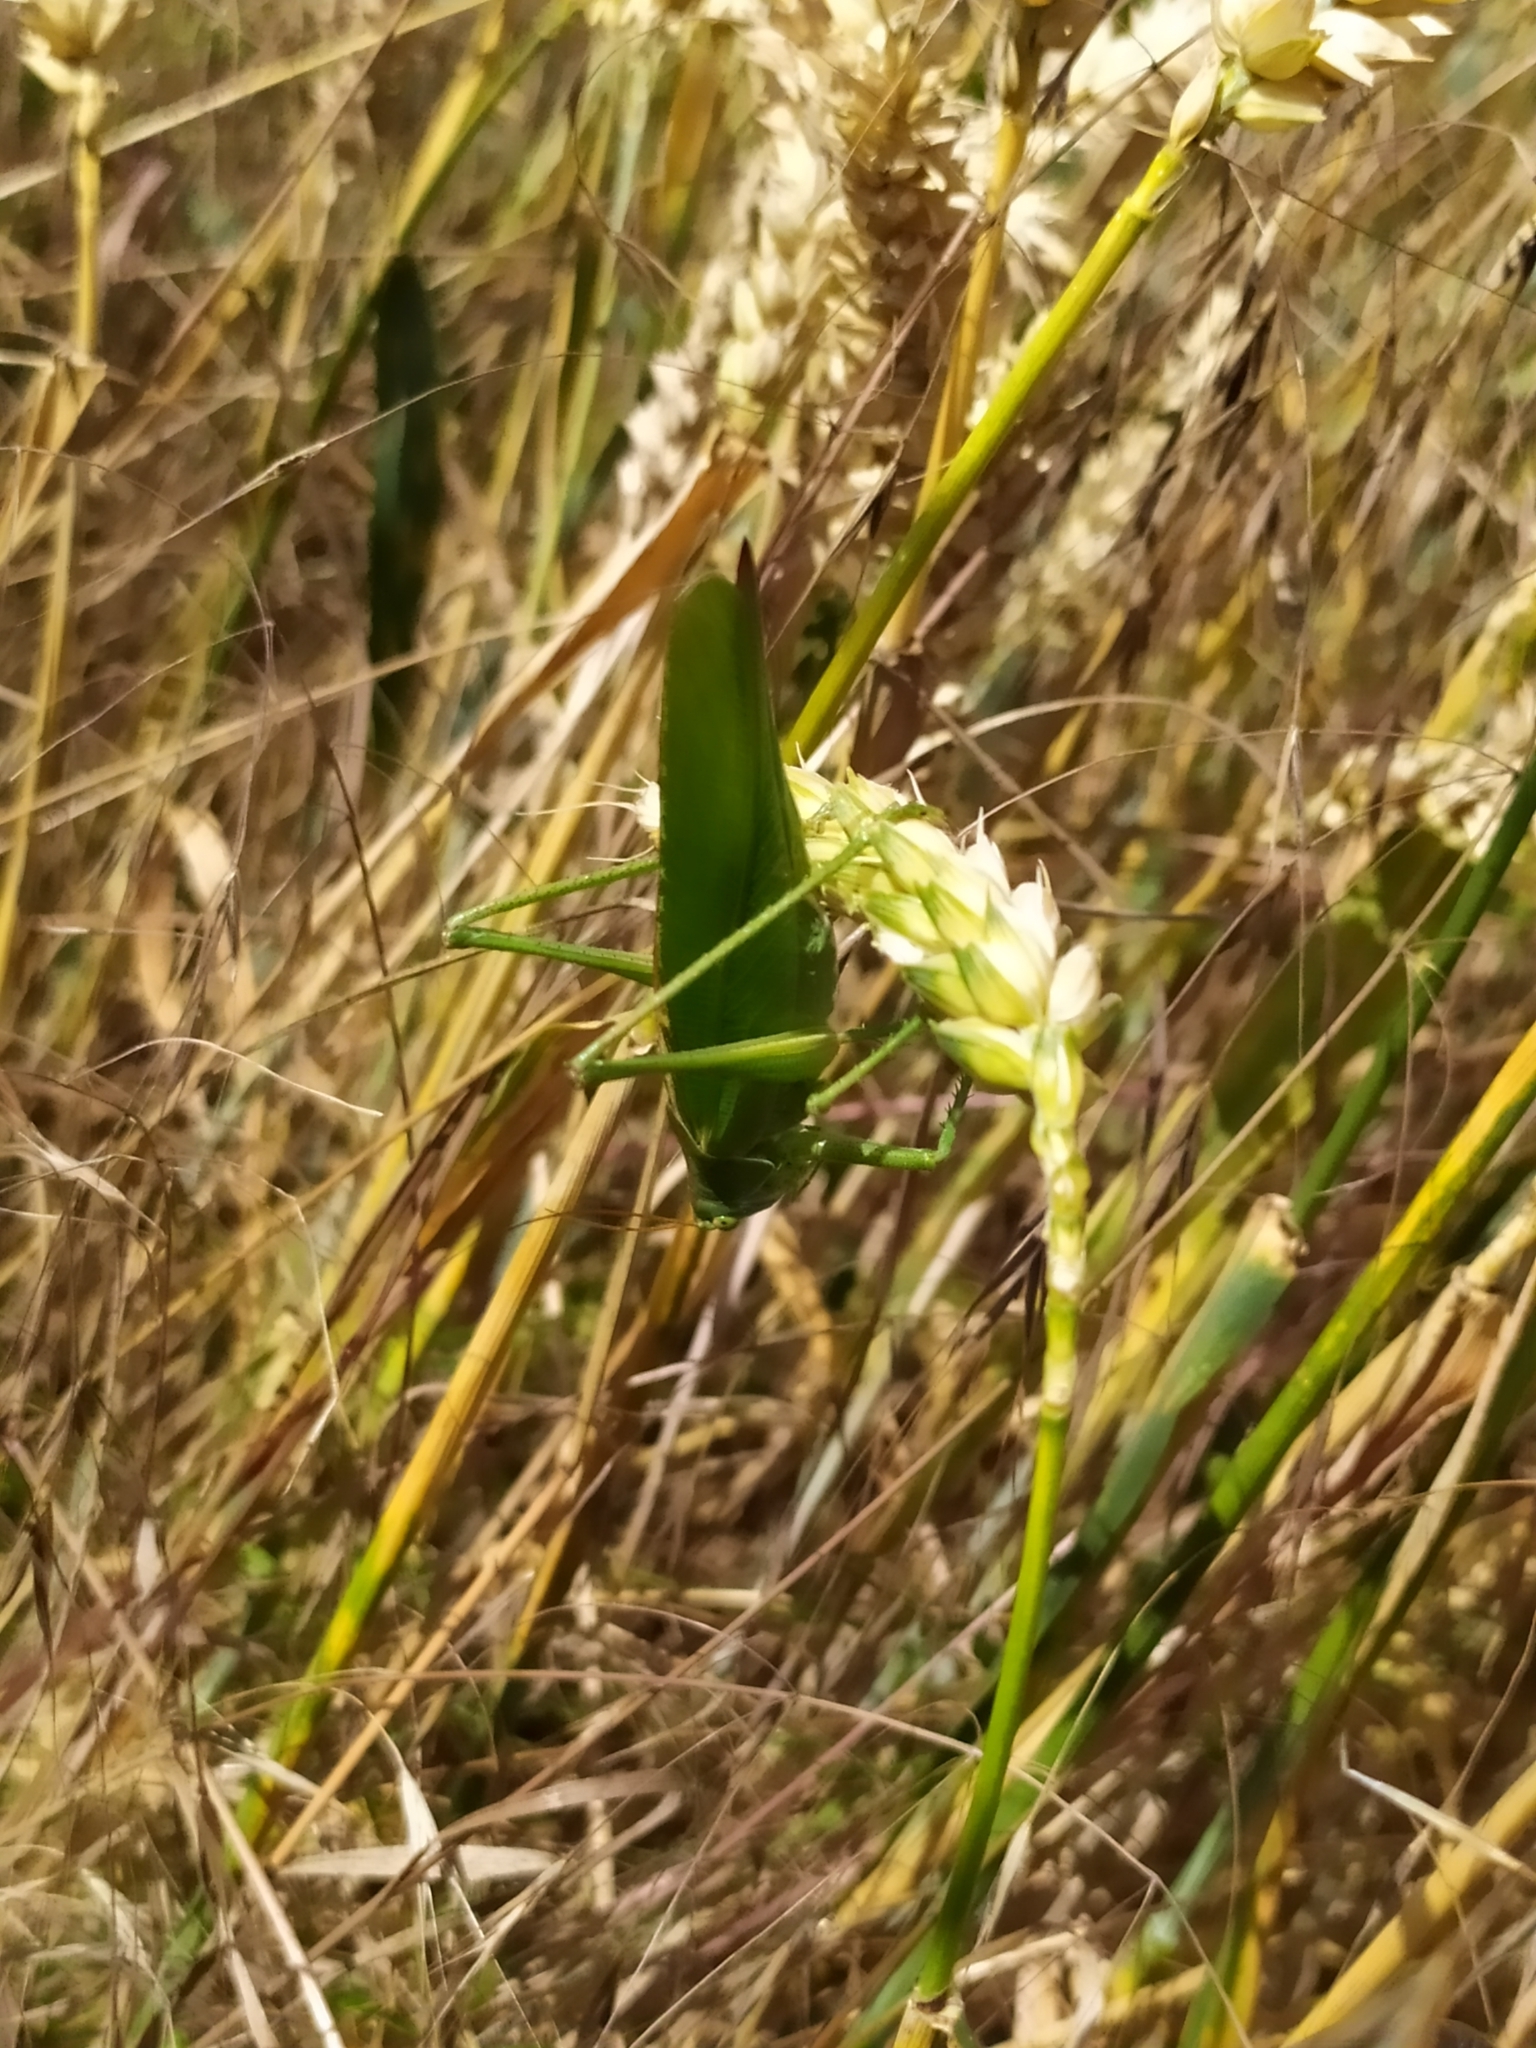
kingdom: Animalia
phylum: Arthropoda
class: Insecta
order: Orthoptera
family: Tettigoniidae
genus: Tettigonia
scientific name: Tettigonia viridissima
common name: Great green bush-cricket
